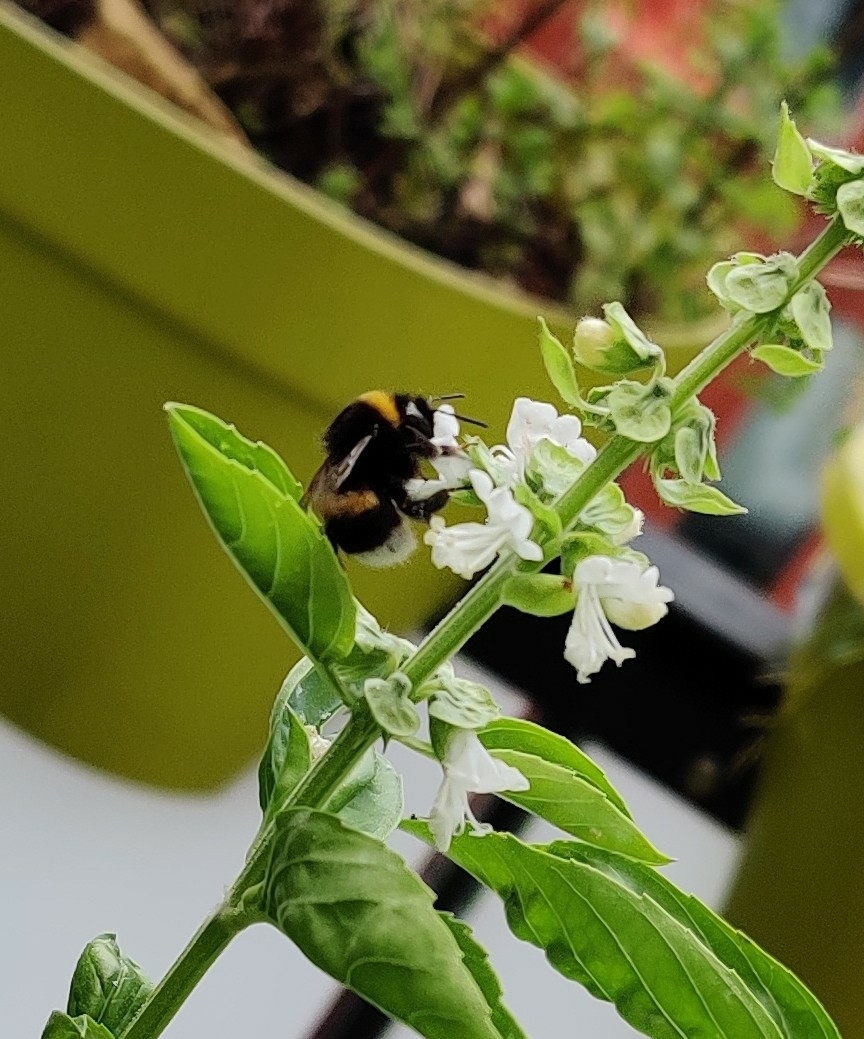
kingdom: Animalia
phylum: Arthropoda
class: Insecta
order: Hymenoptera
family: Apidae
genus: Bombus
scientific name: Bombus
